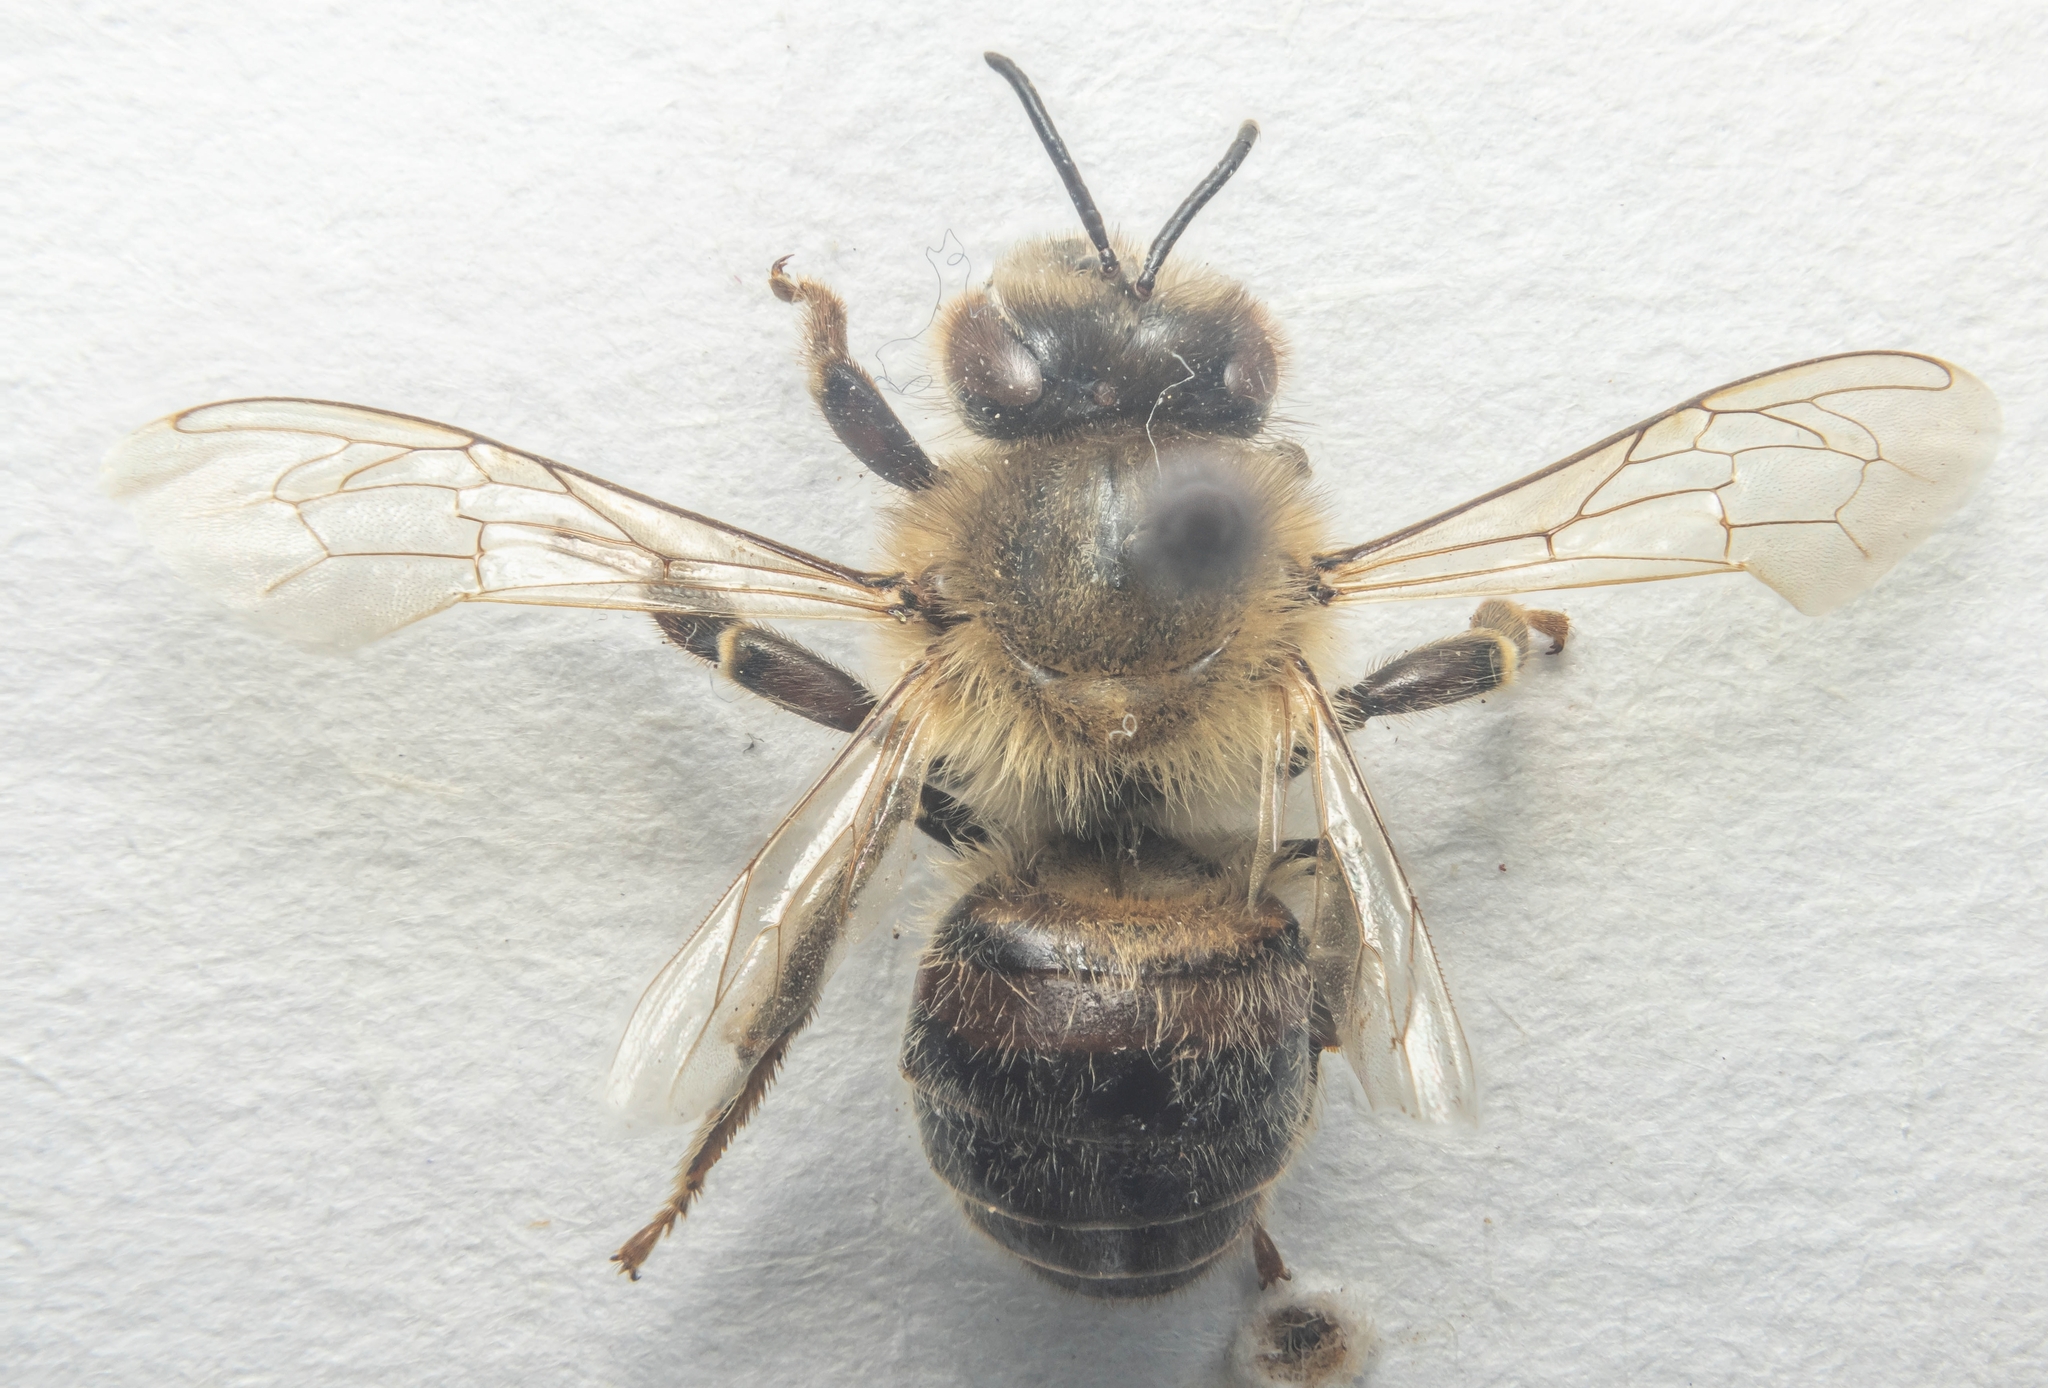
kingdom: Animalia
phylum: Arthropoda
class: Insecta
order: Hymenoptera
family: Apidae
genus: Apis
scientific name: Apis mellifera
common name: Honey bee
